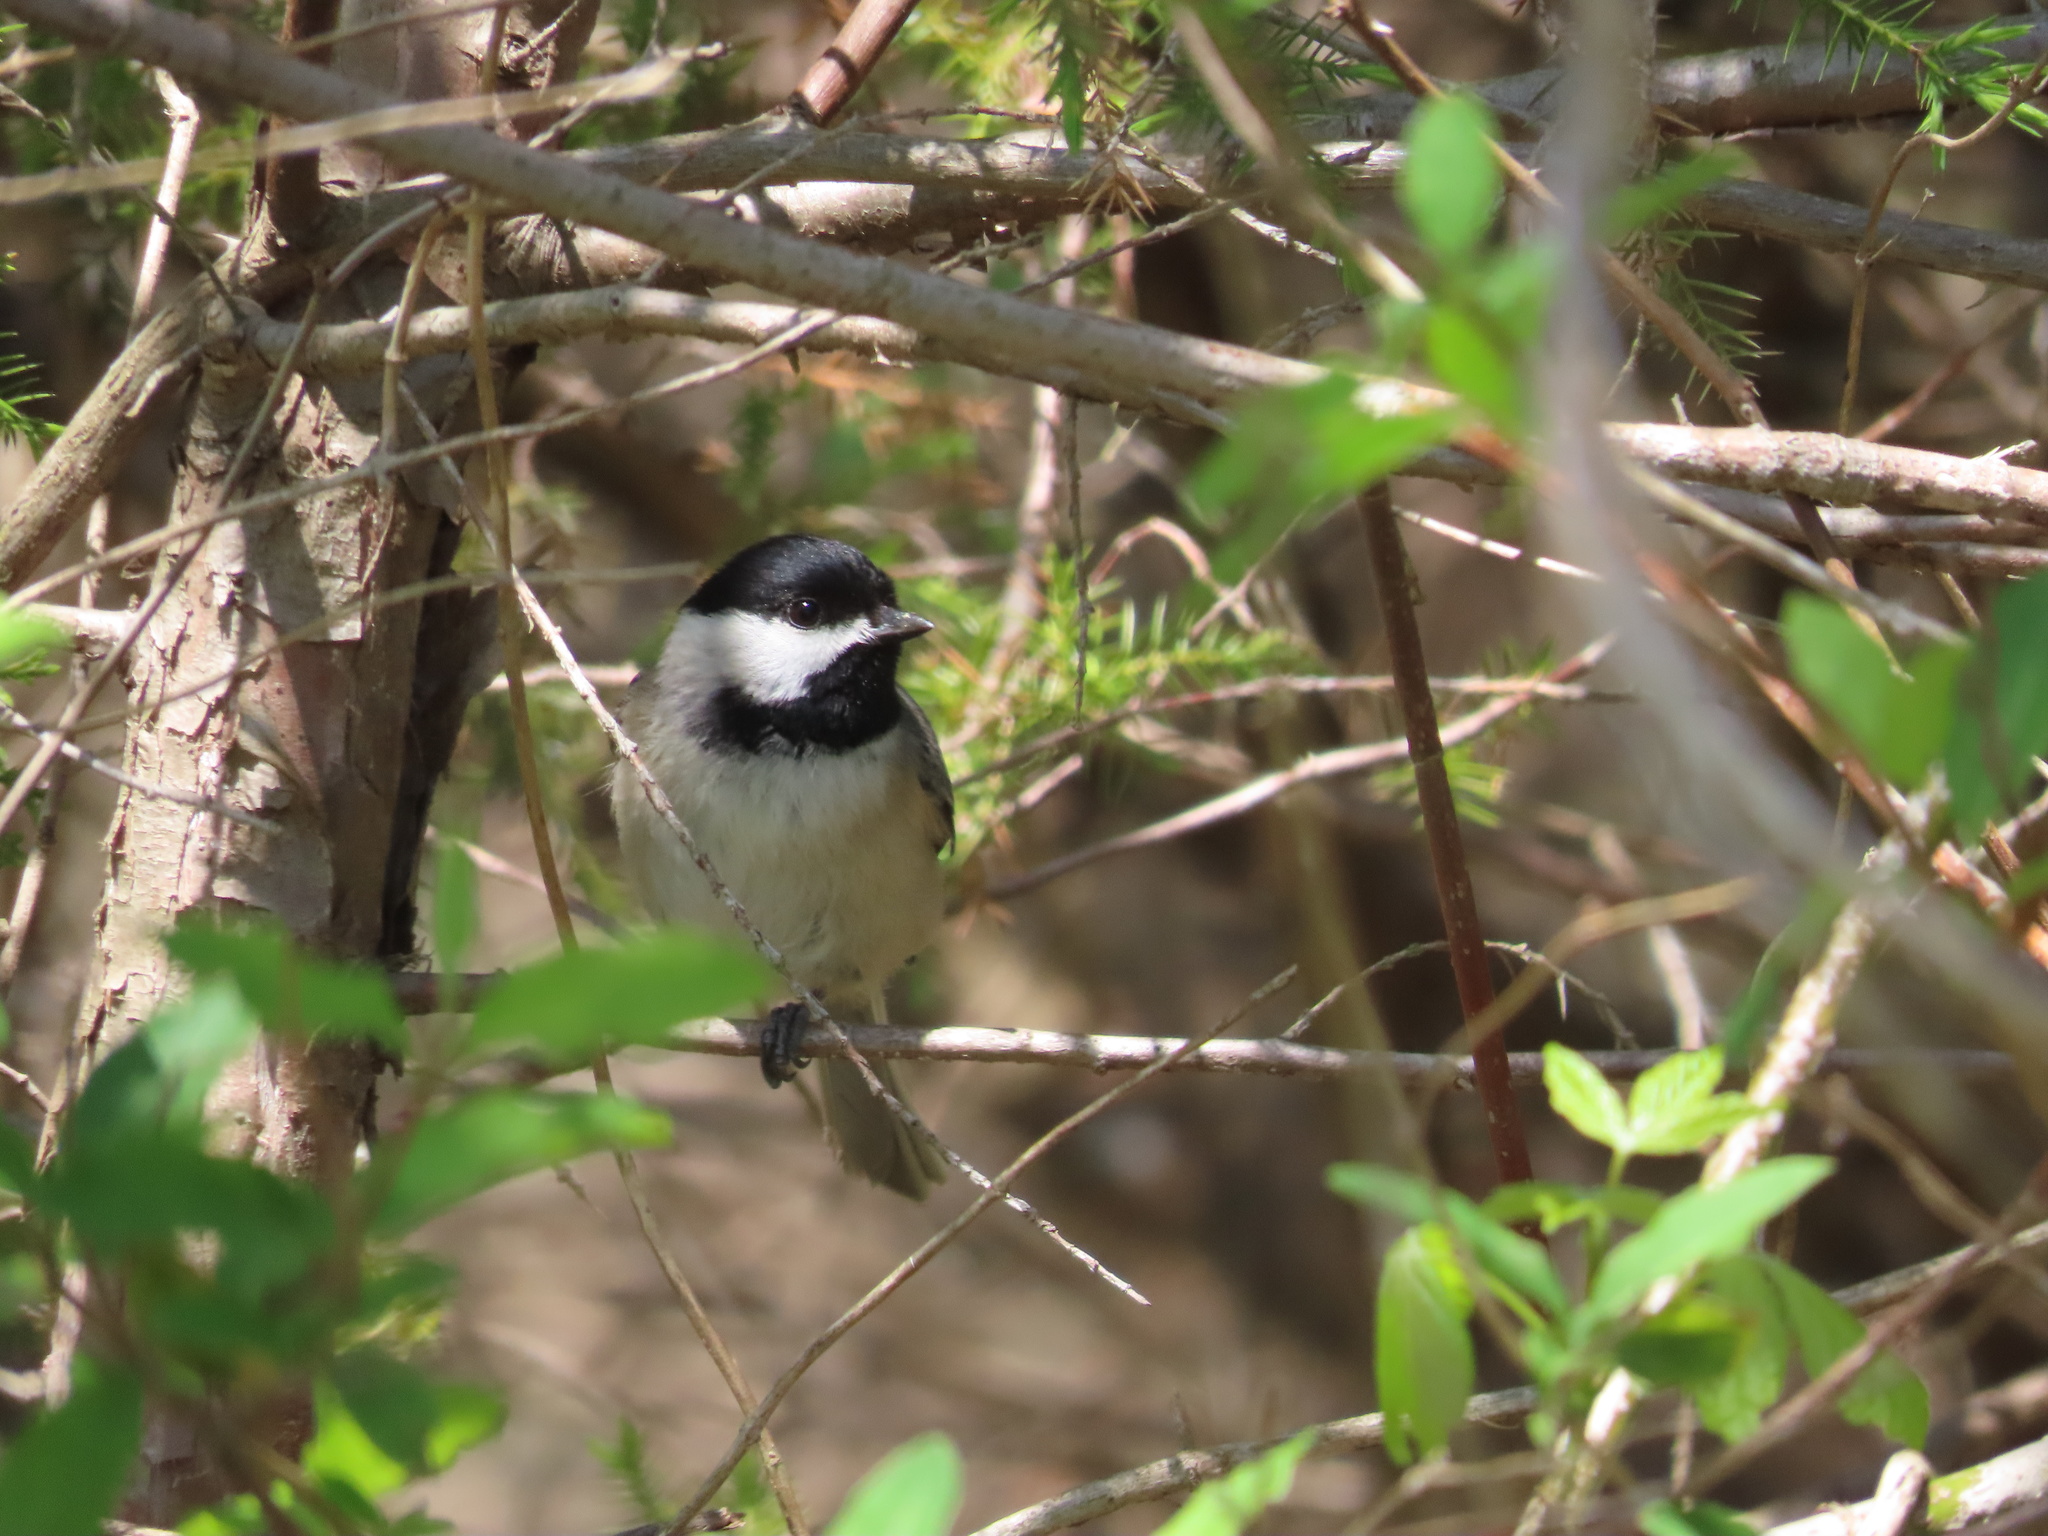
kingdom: Animalia
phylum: Chordata
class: Aves
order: Passeriformes
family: Paridae
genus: Poecile
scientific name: Poecile carolinensis
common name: Carolina chickadee
